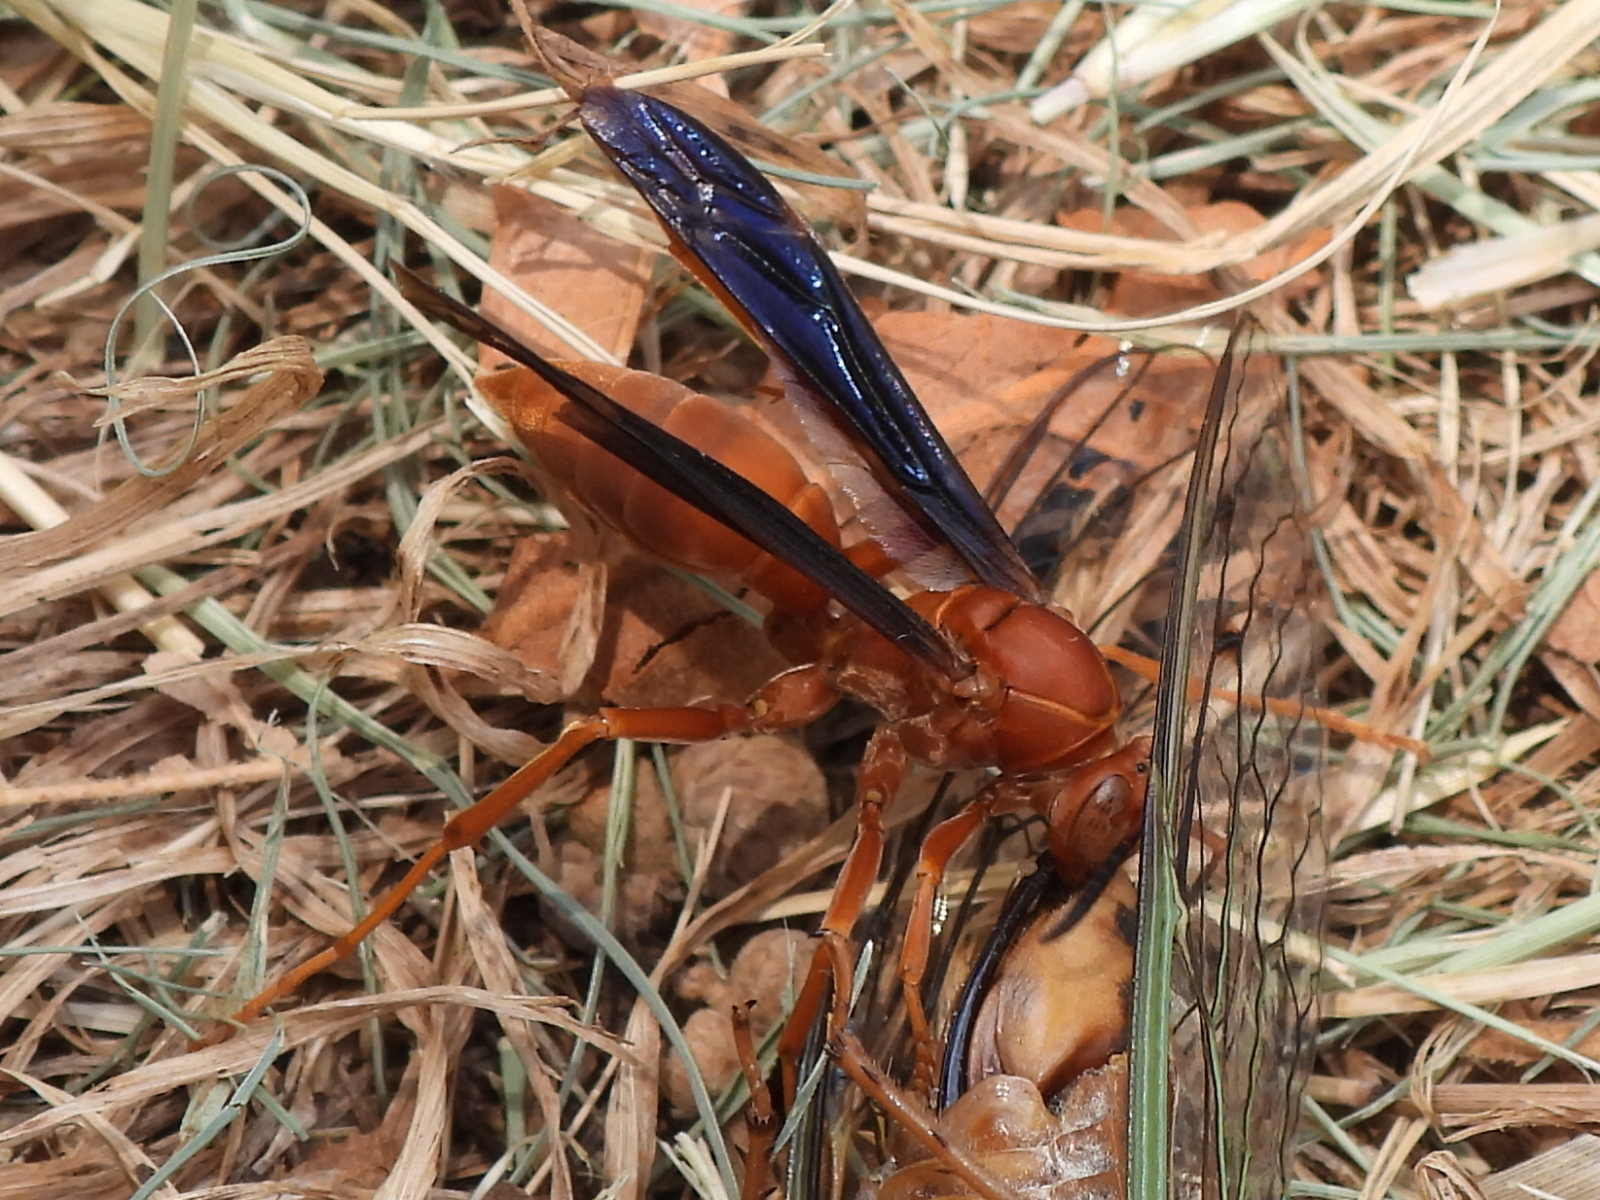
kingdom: Animalia
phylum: Arthropoda
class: Insecta
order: Hymenoptera
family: Eumenidae
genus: Polistes
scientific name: Polistes carolina
